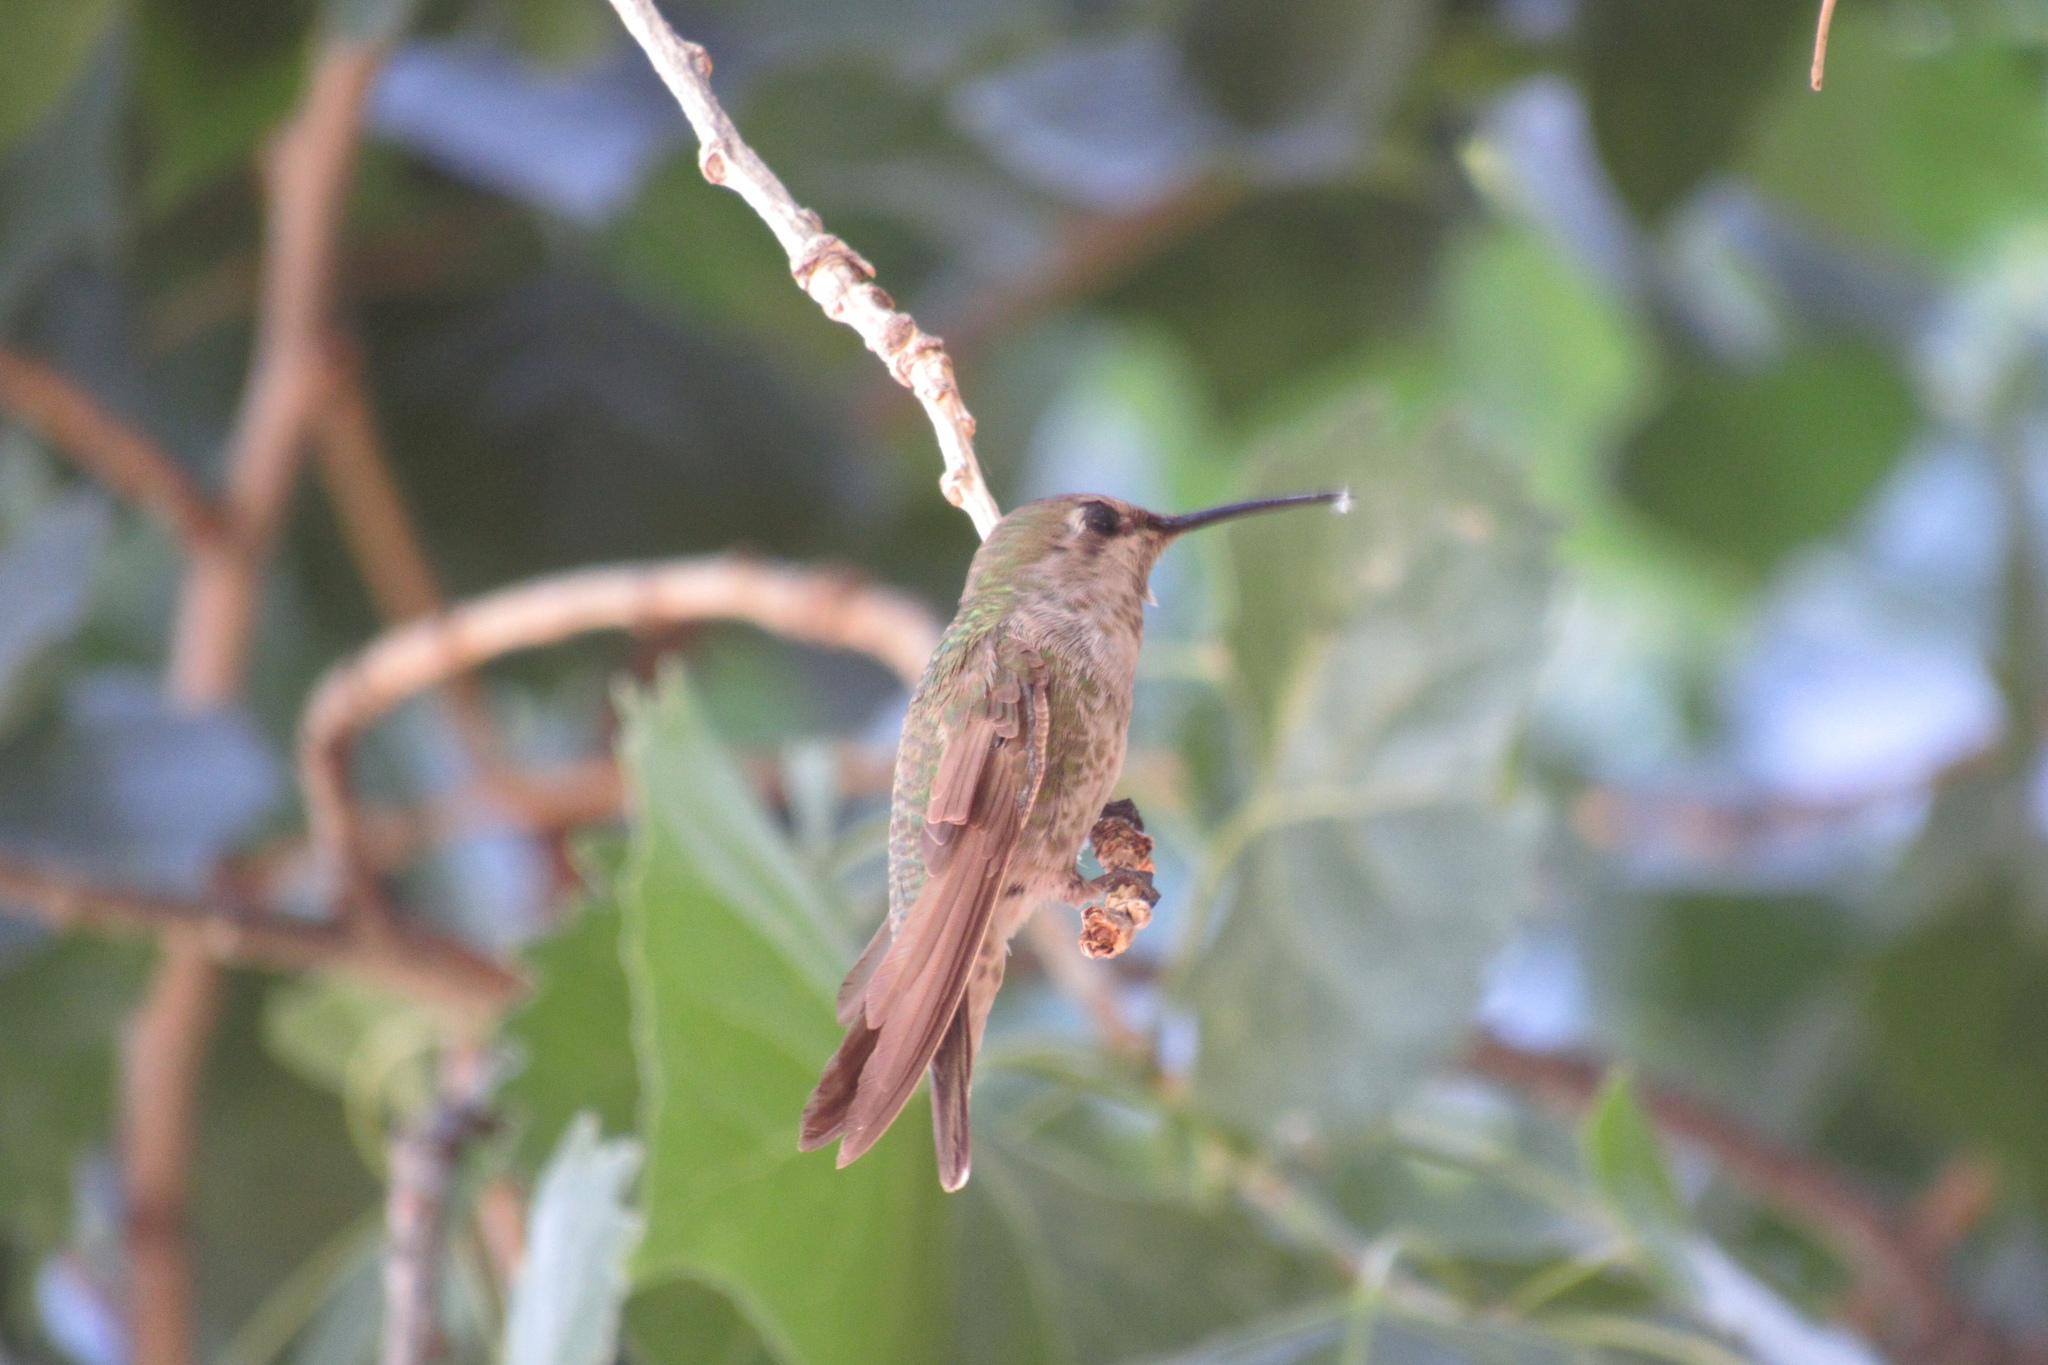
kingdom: Animalia
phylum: Chordata
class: Aves
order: Apodiformes
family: Trochilidae
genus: Calypte
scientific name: Calypte anna
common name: Anna's hummingbird
